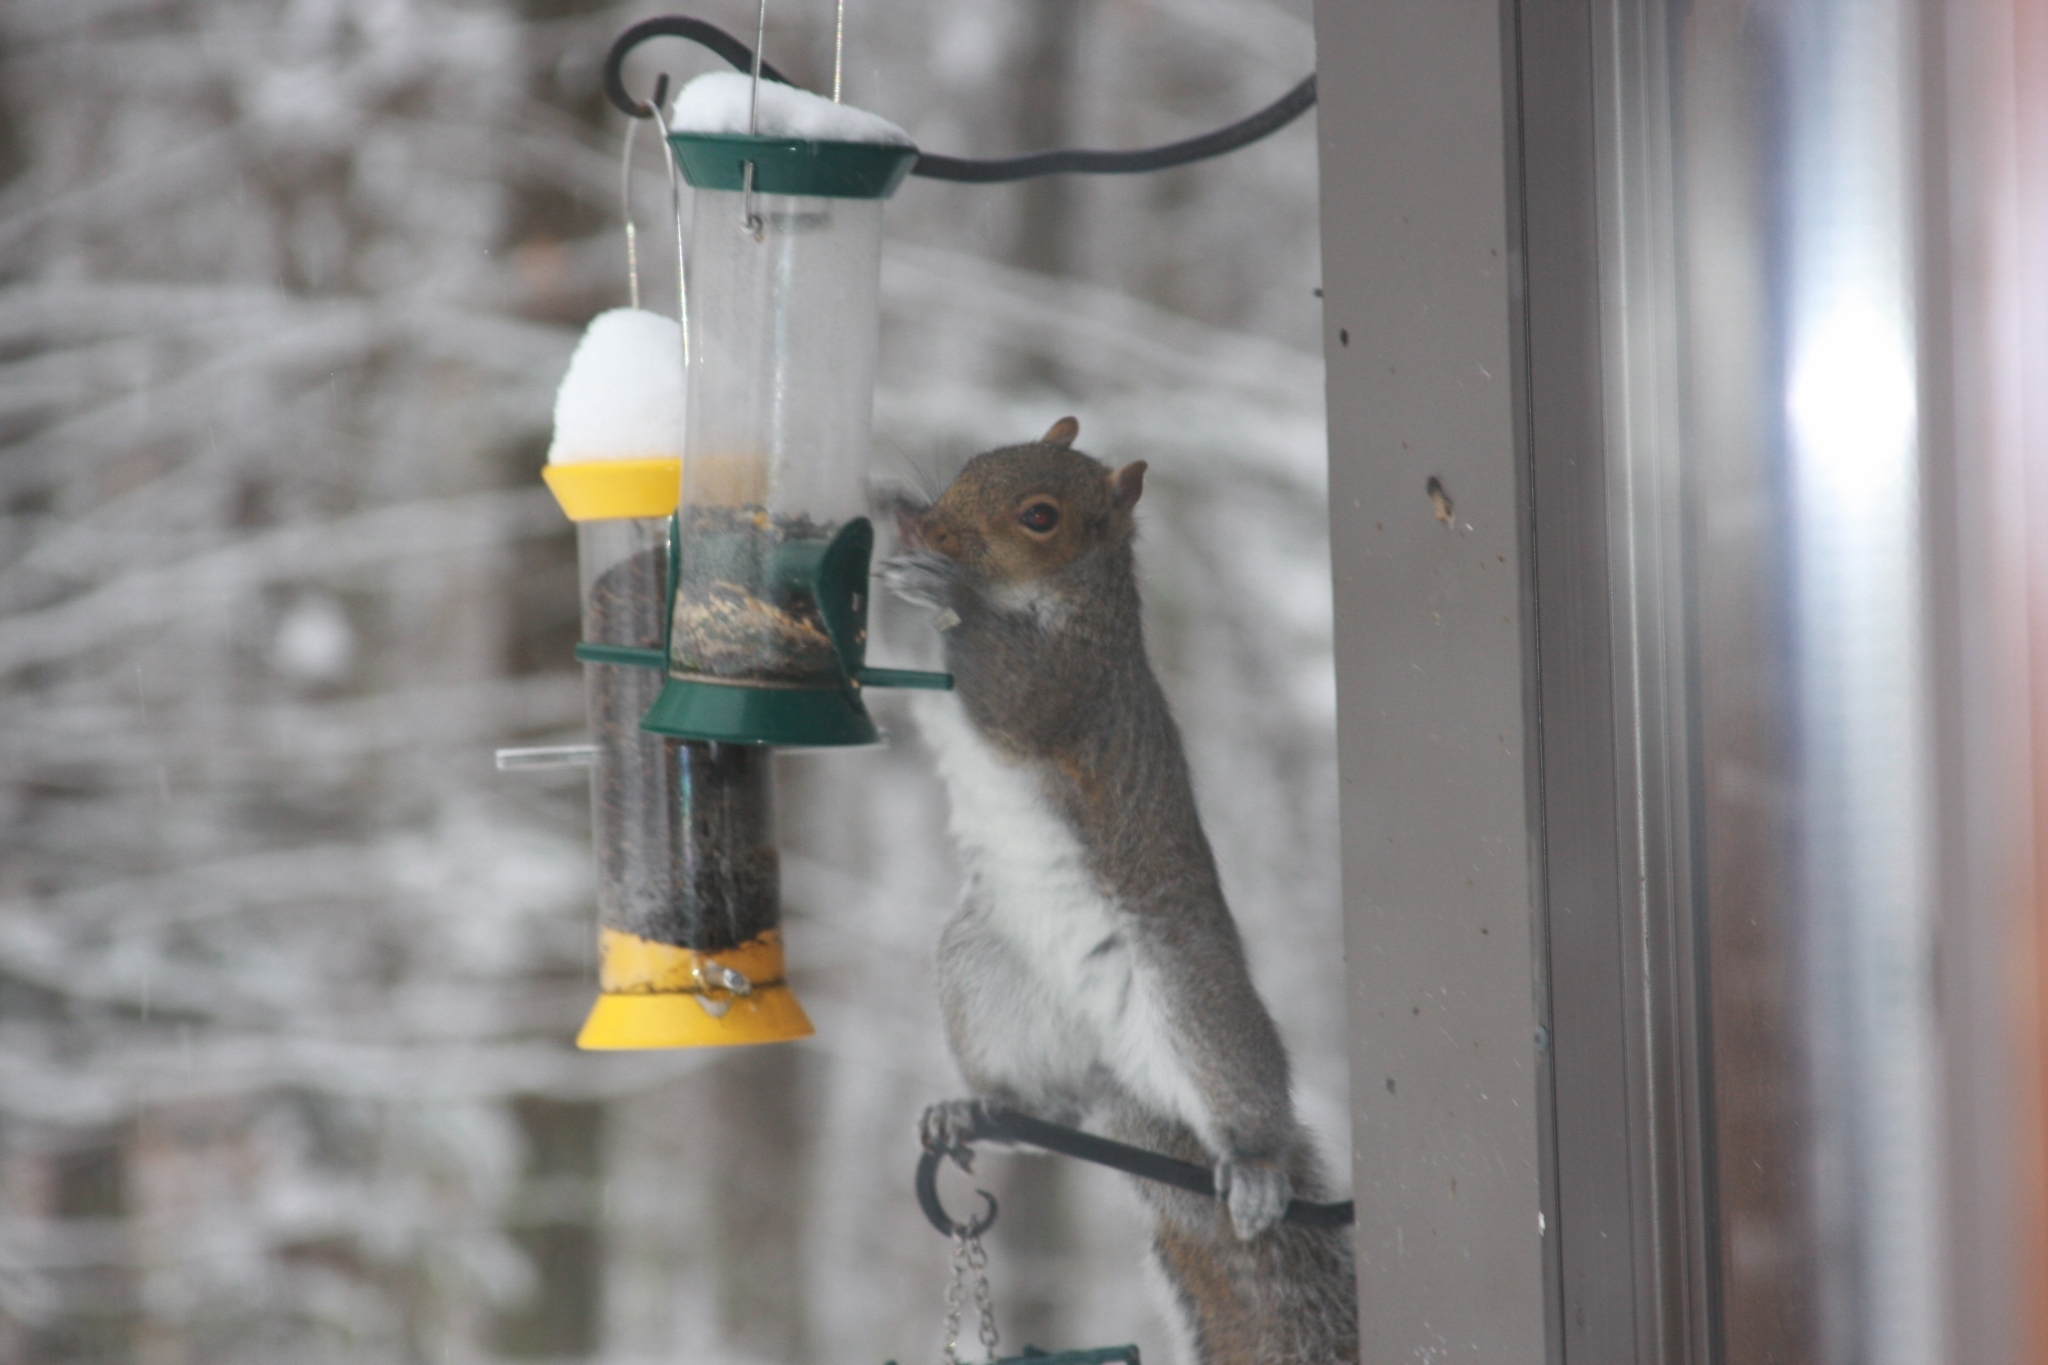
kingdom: Animalia
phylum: Chordata
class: Mammalia
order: Rodentia
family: Sciuridae
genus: Sciurus
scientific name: Sciurus carolinensis
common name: Eastern gray squirrel
